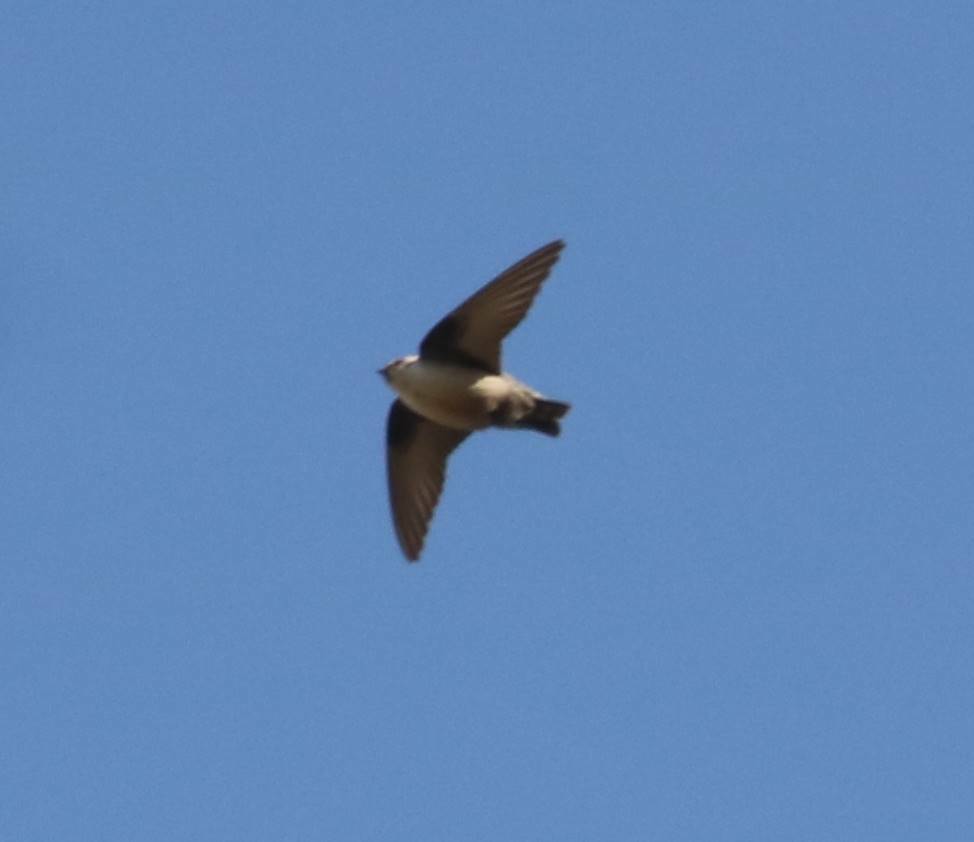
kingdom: Animalia
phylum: Chordata
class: Aves
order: Passeriformes
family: Hirundinidae
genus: Ptyonoprogne
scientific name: Ptyonoprogne rupestris
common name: Eurasian crag martin
